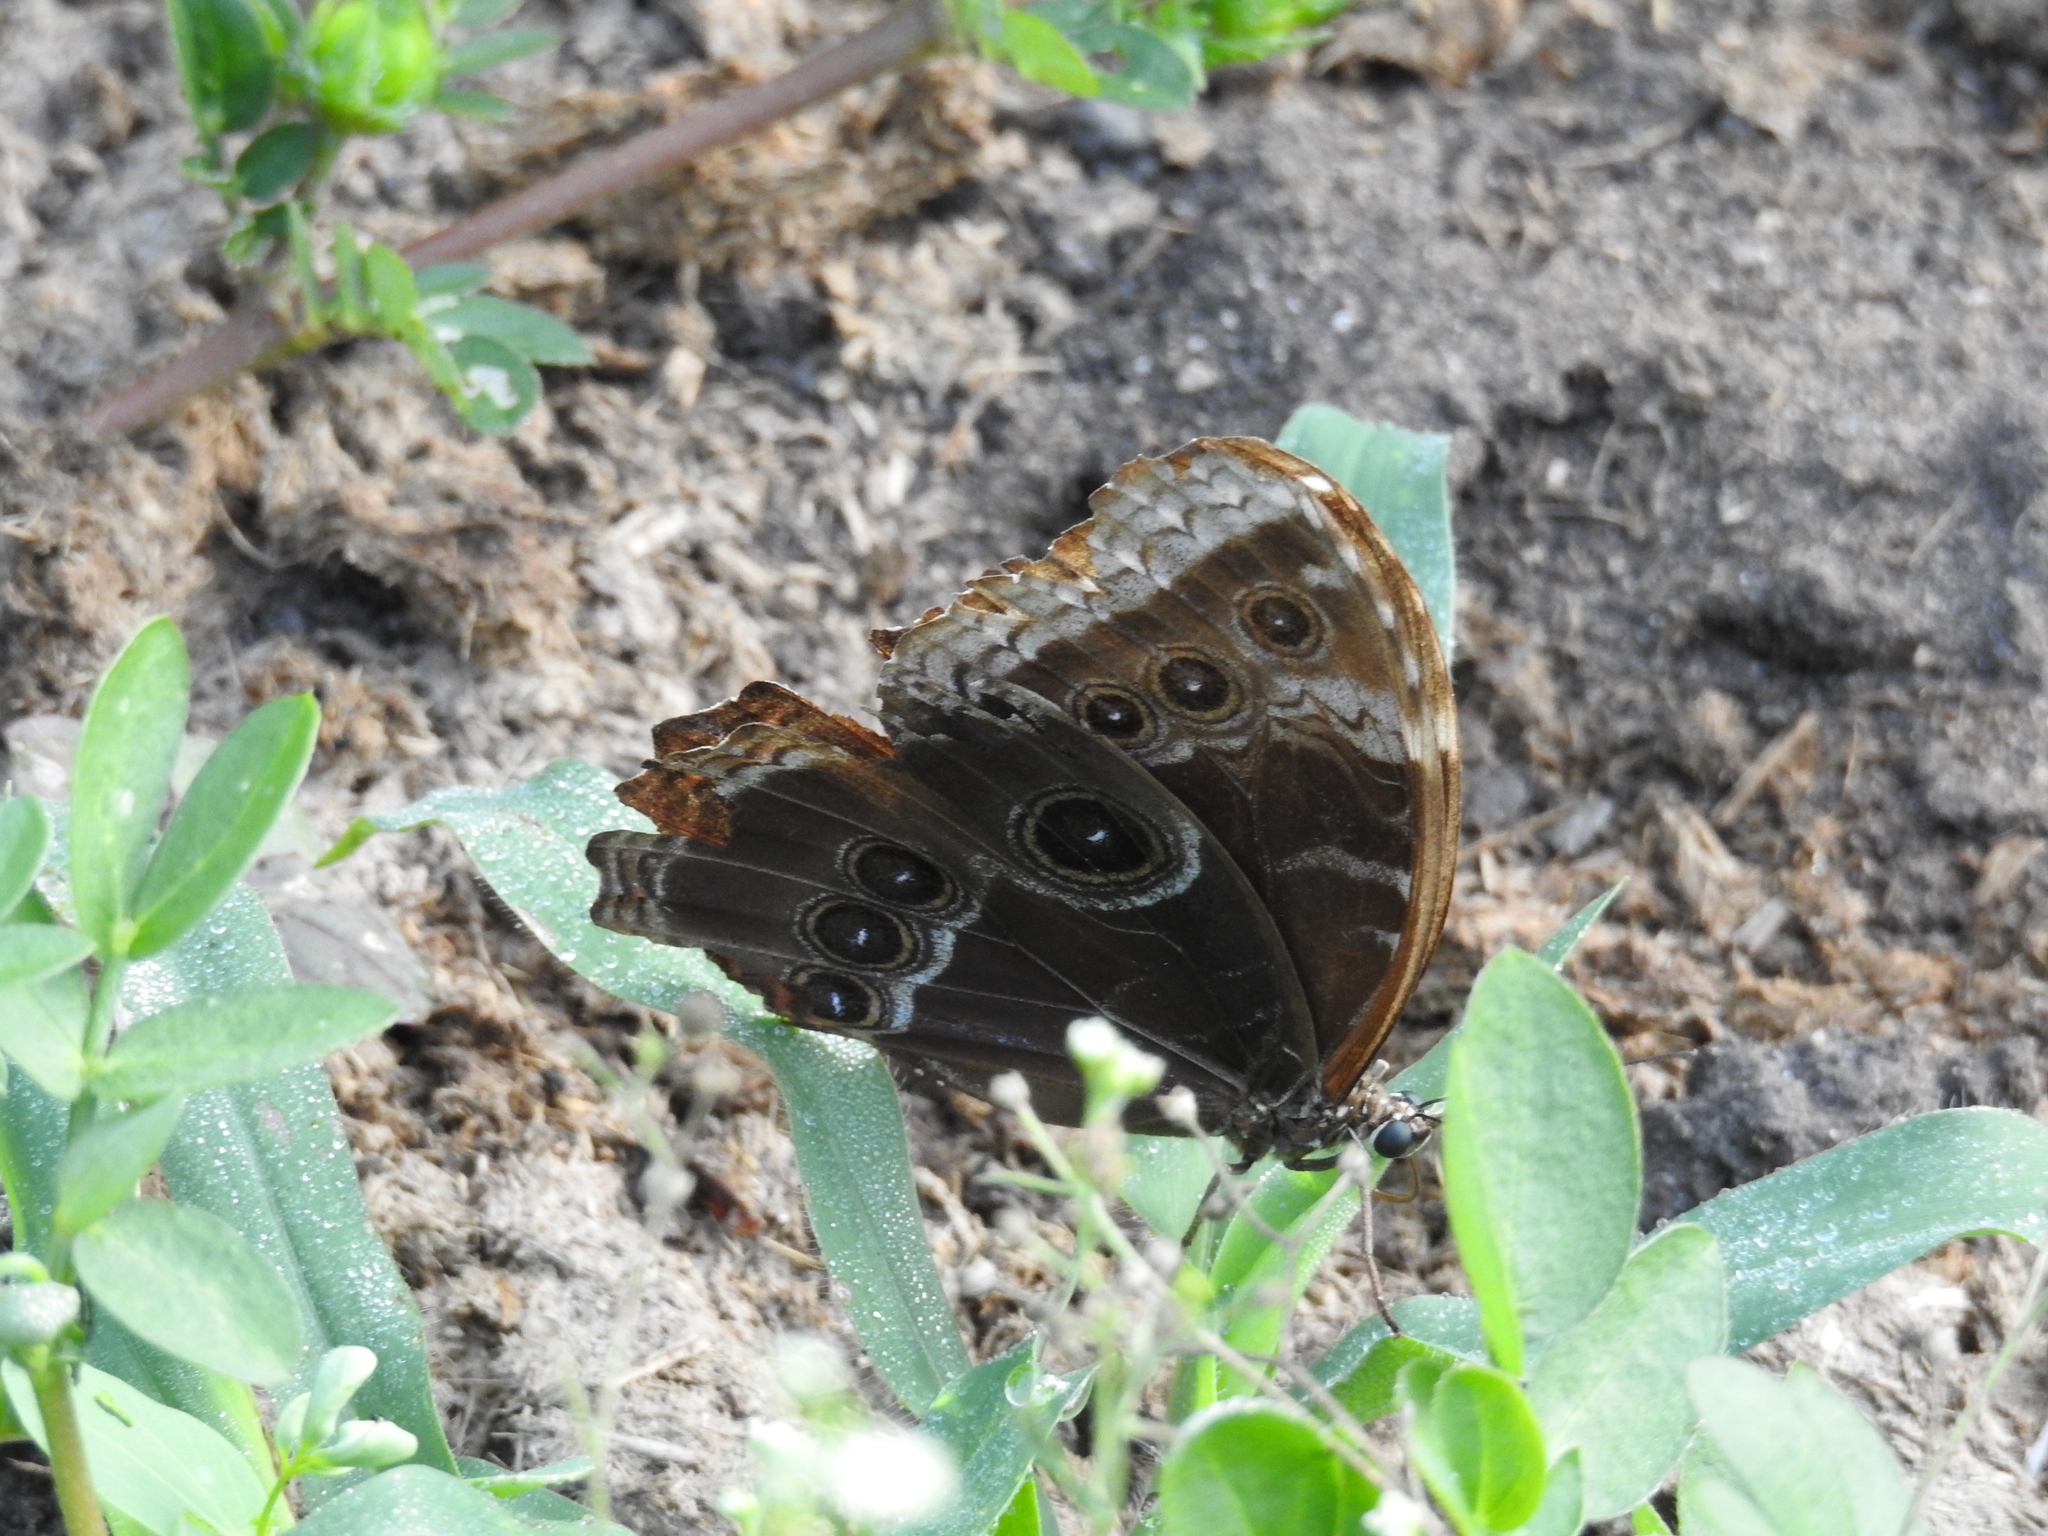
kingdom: Animalia
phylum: Arthropoda
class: Insecta
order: Lepidoptera
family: Nymphalidae
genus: Morpho
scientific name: Morpho helenor
